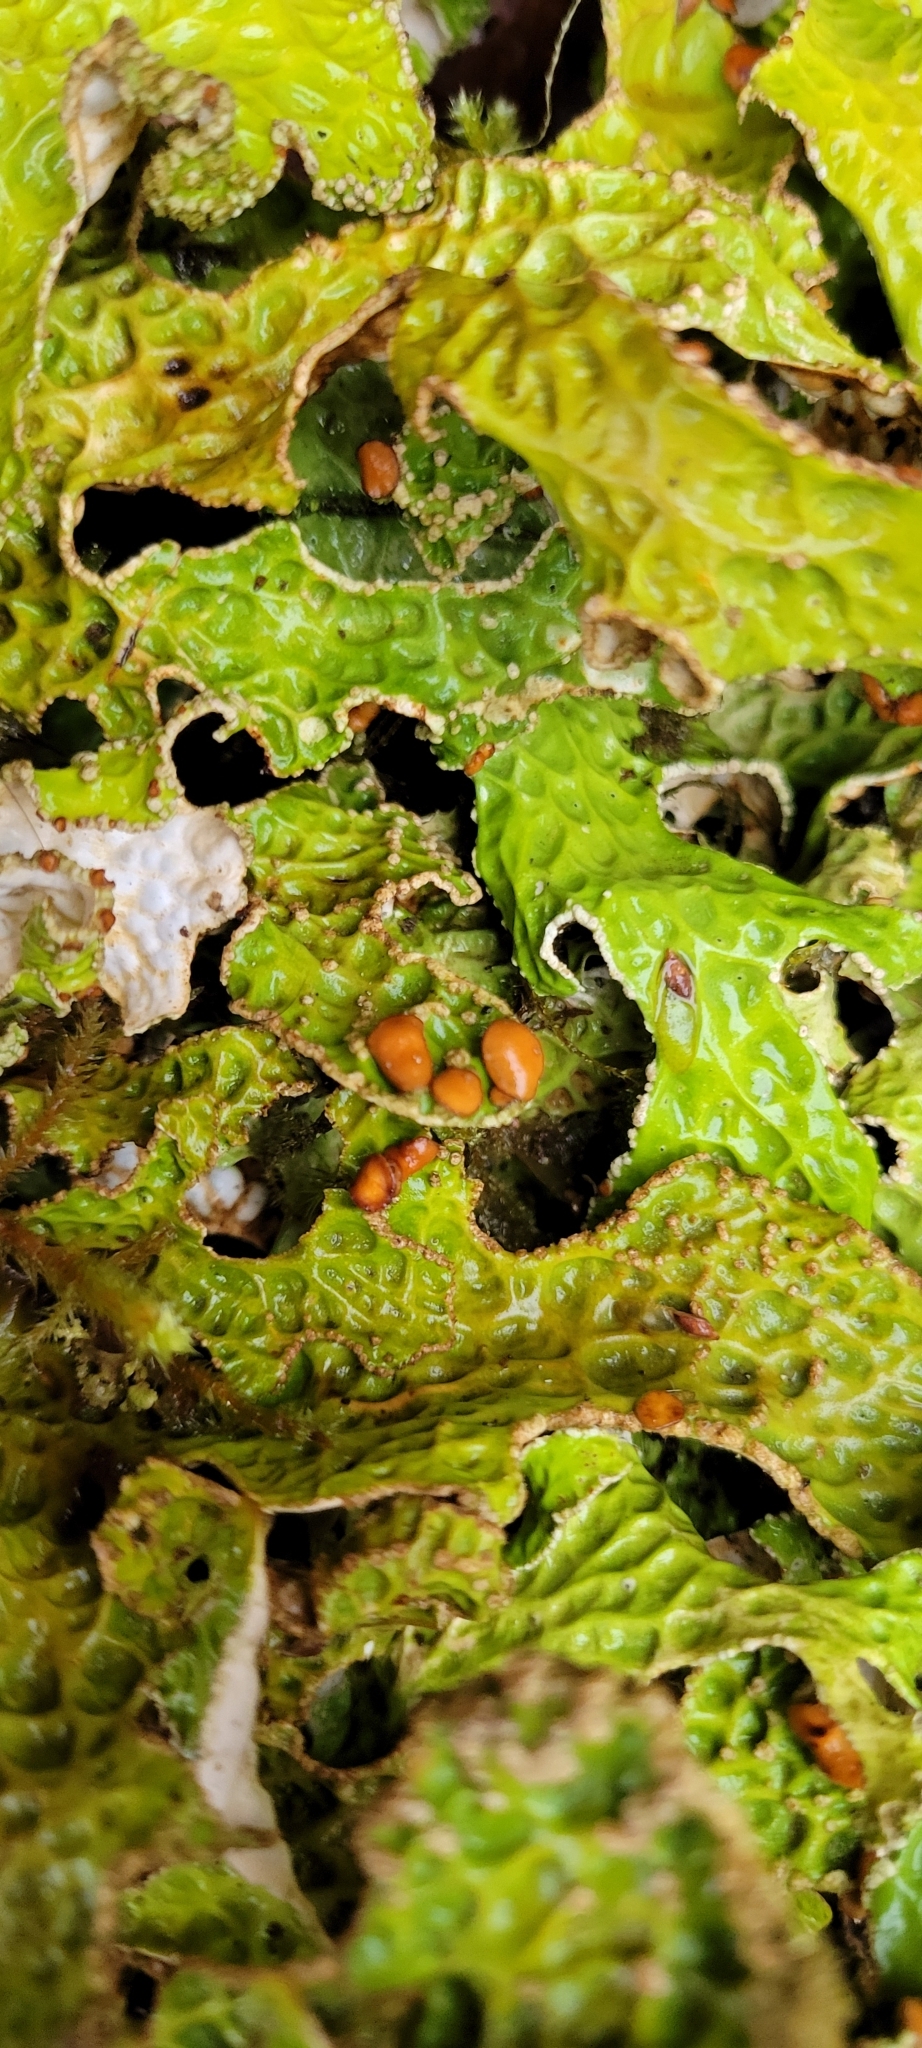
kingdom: Fungi
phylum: Ascomycota
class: Lecanoromycetes
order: Peltigerales
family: Lobariaceae
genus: Lobaria
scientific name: Lobaria pulmonaria
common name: Lungwort
